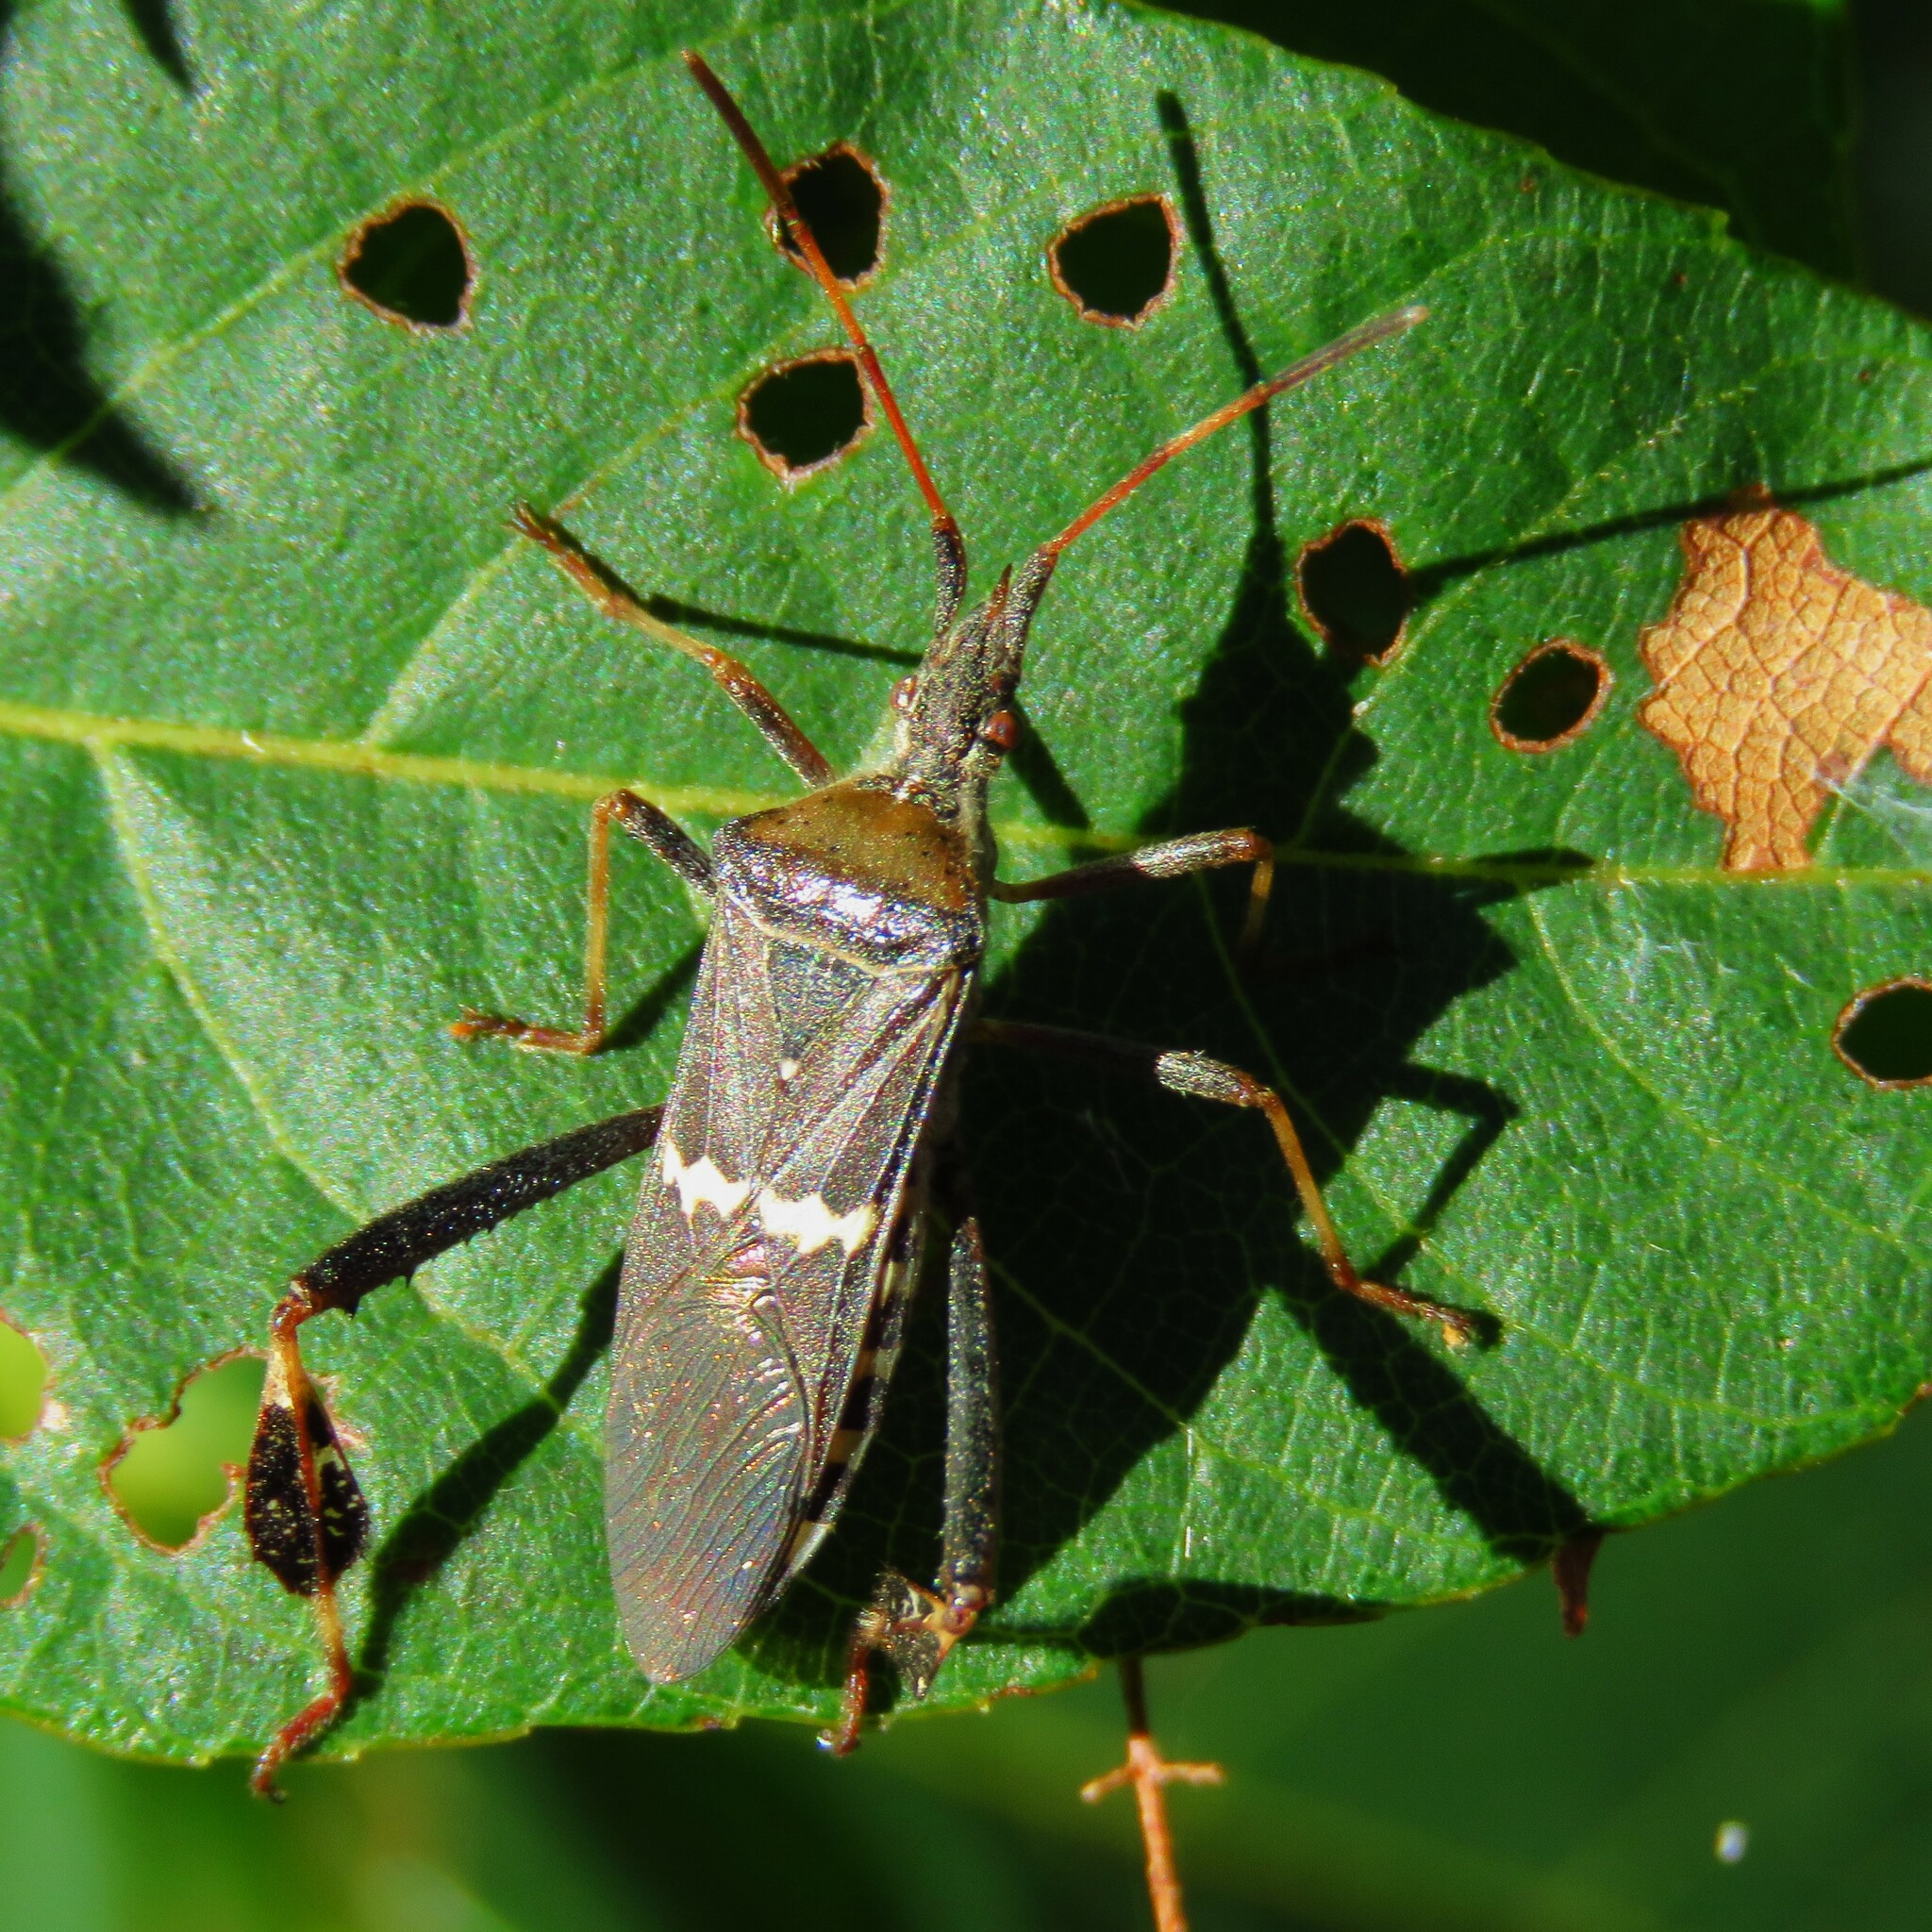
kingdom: Animalia
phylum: Arthropoda
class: Insecta
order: Hemiptera
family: Coreidae
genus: Leptoglossus
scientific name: Leptoglossus clypealis
